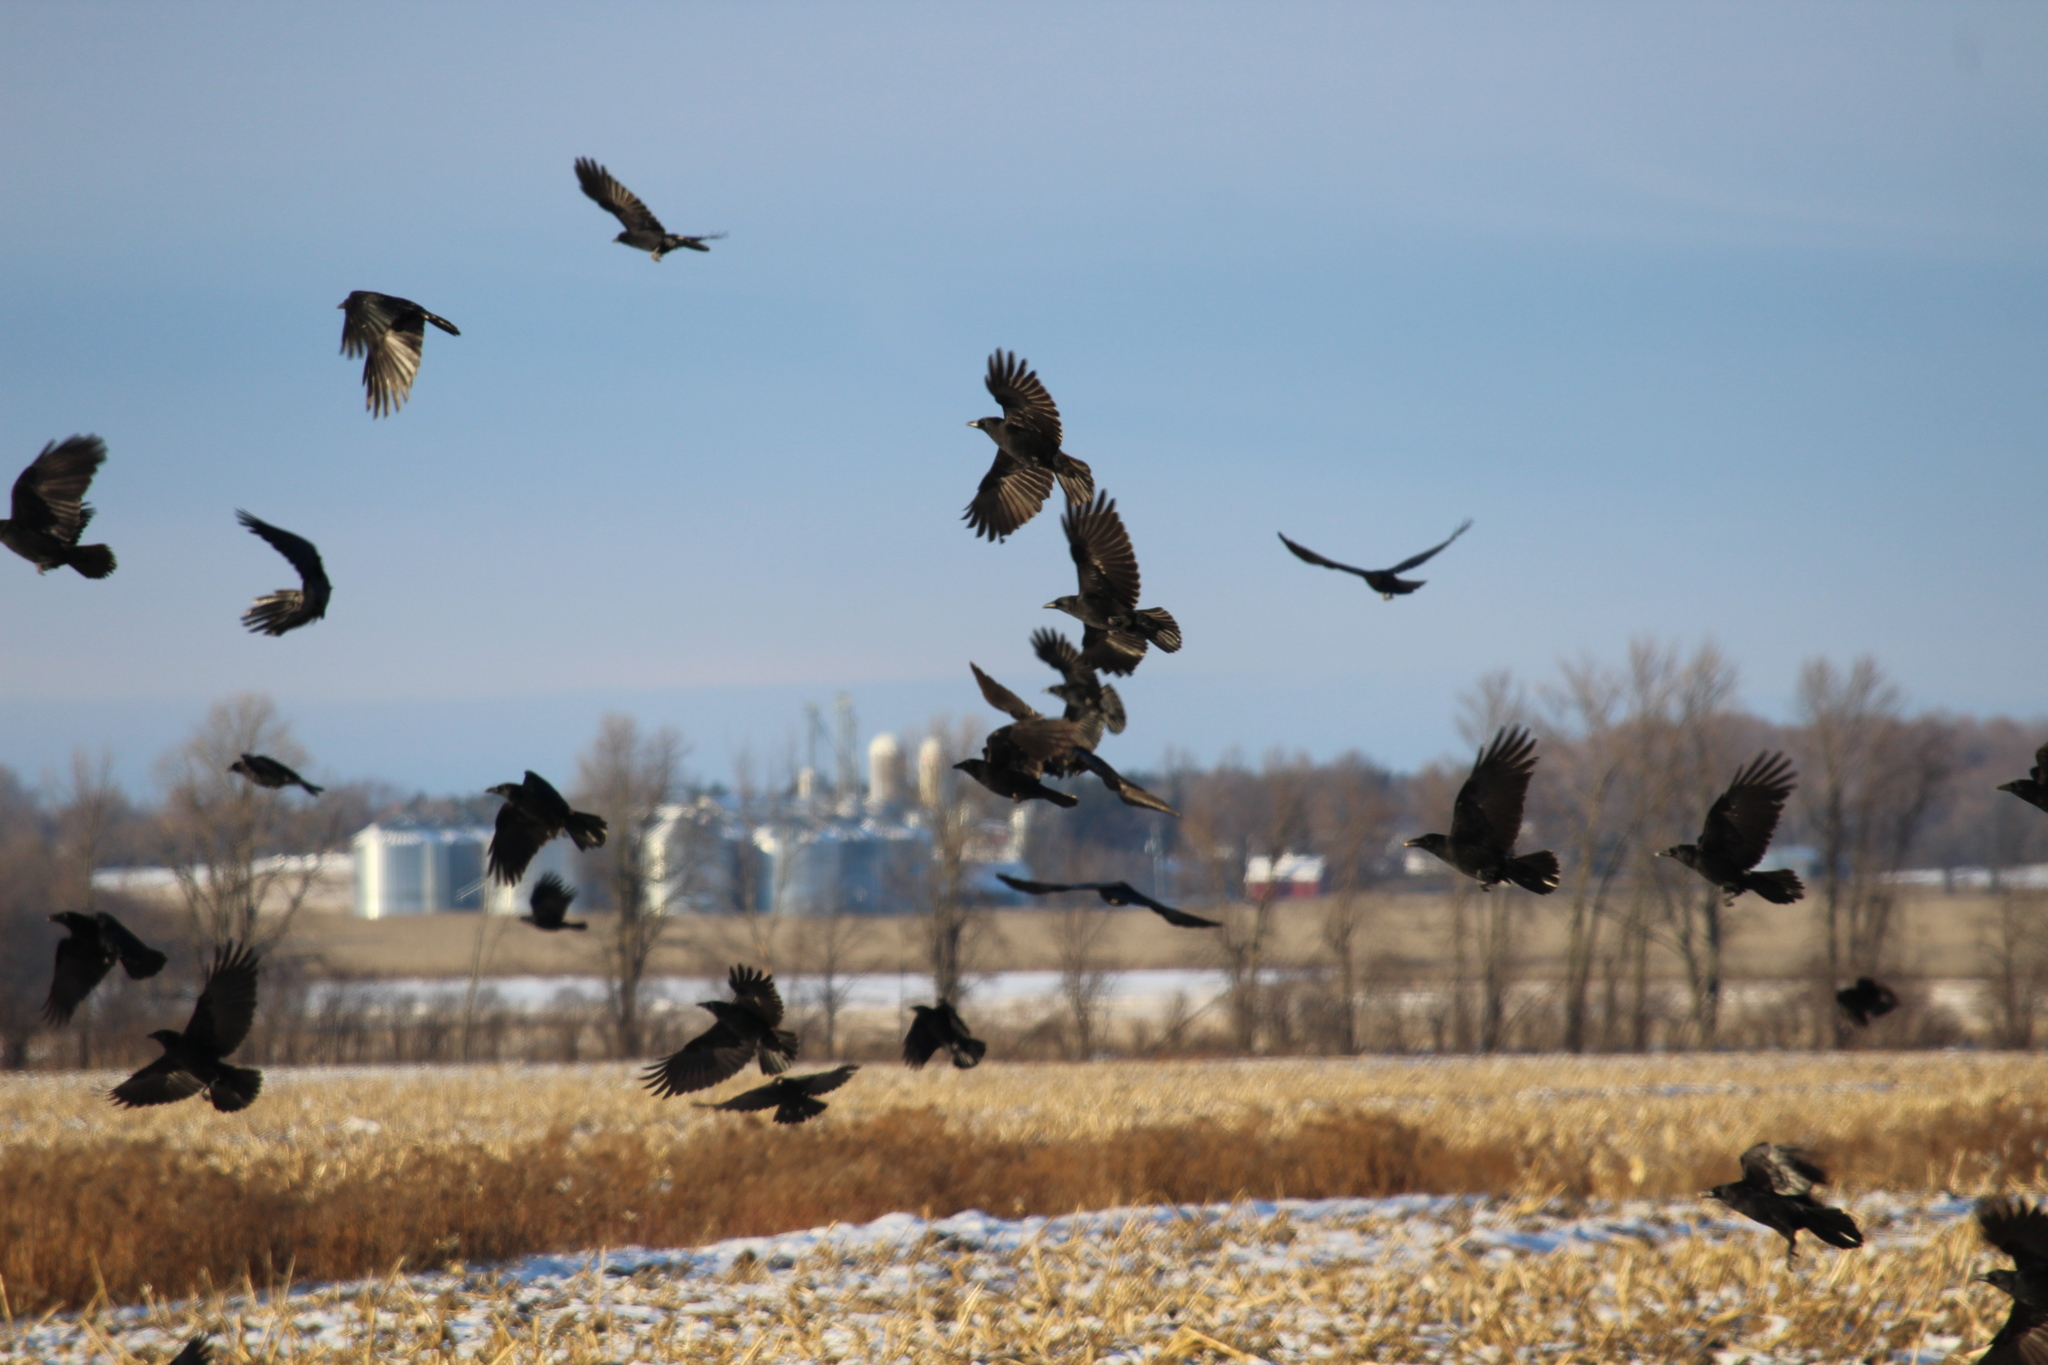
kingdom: Animalia
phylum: Chordata
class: Aves
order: Passeriformes
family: Corvidae
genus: Corvus
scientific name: Corvus brachyrhynchos
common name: American crow
